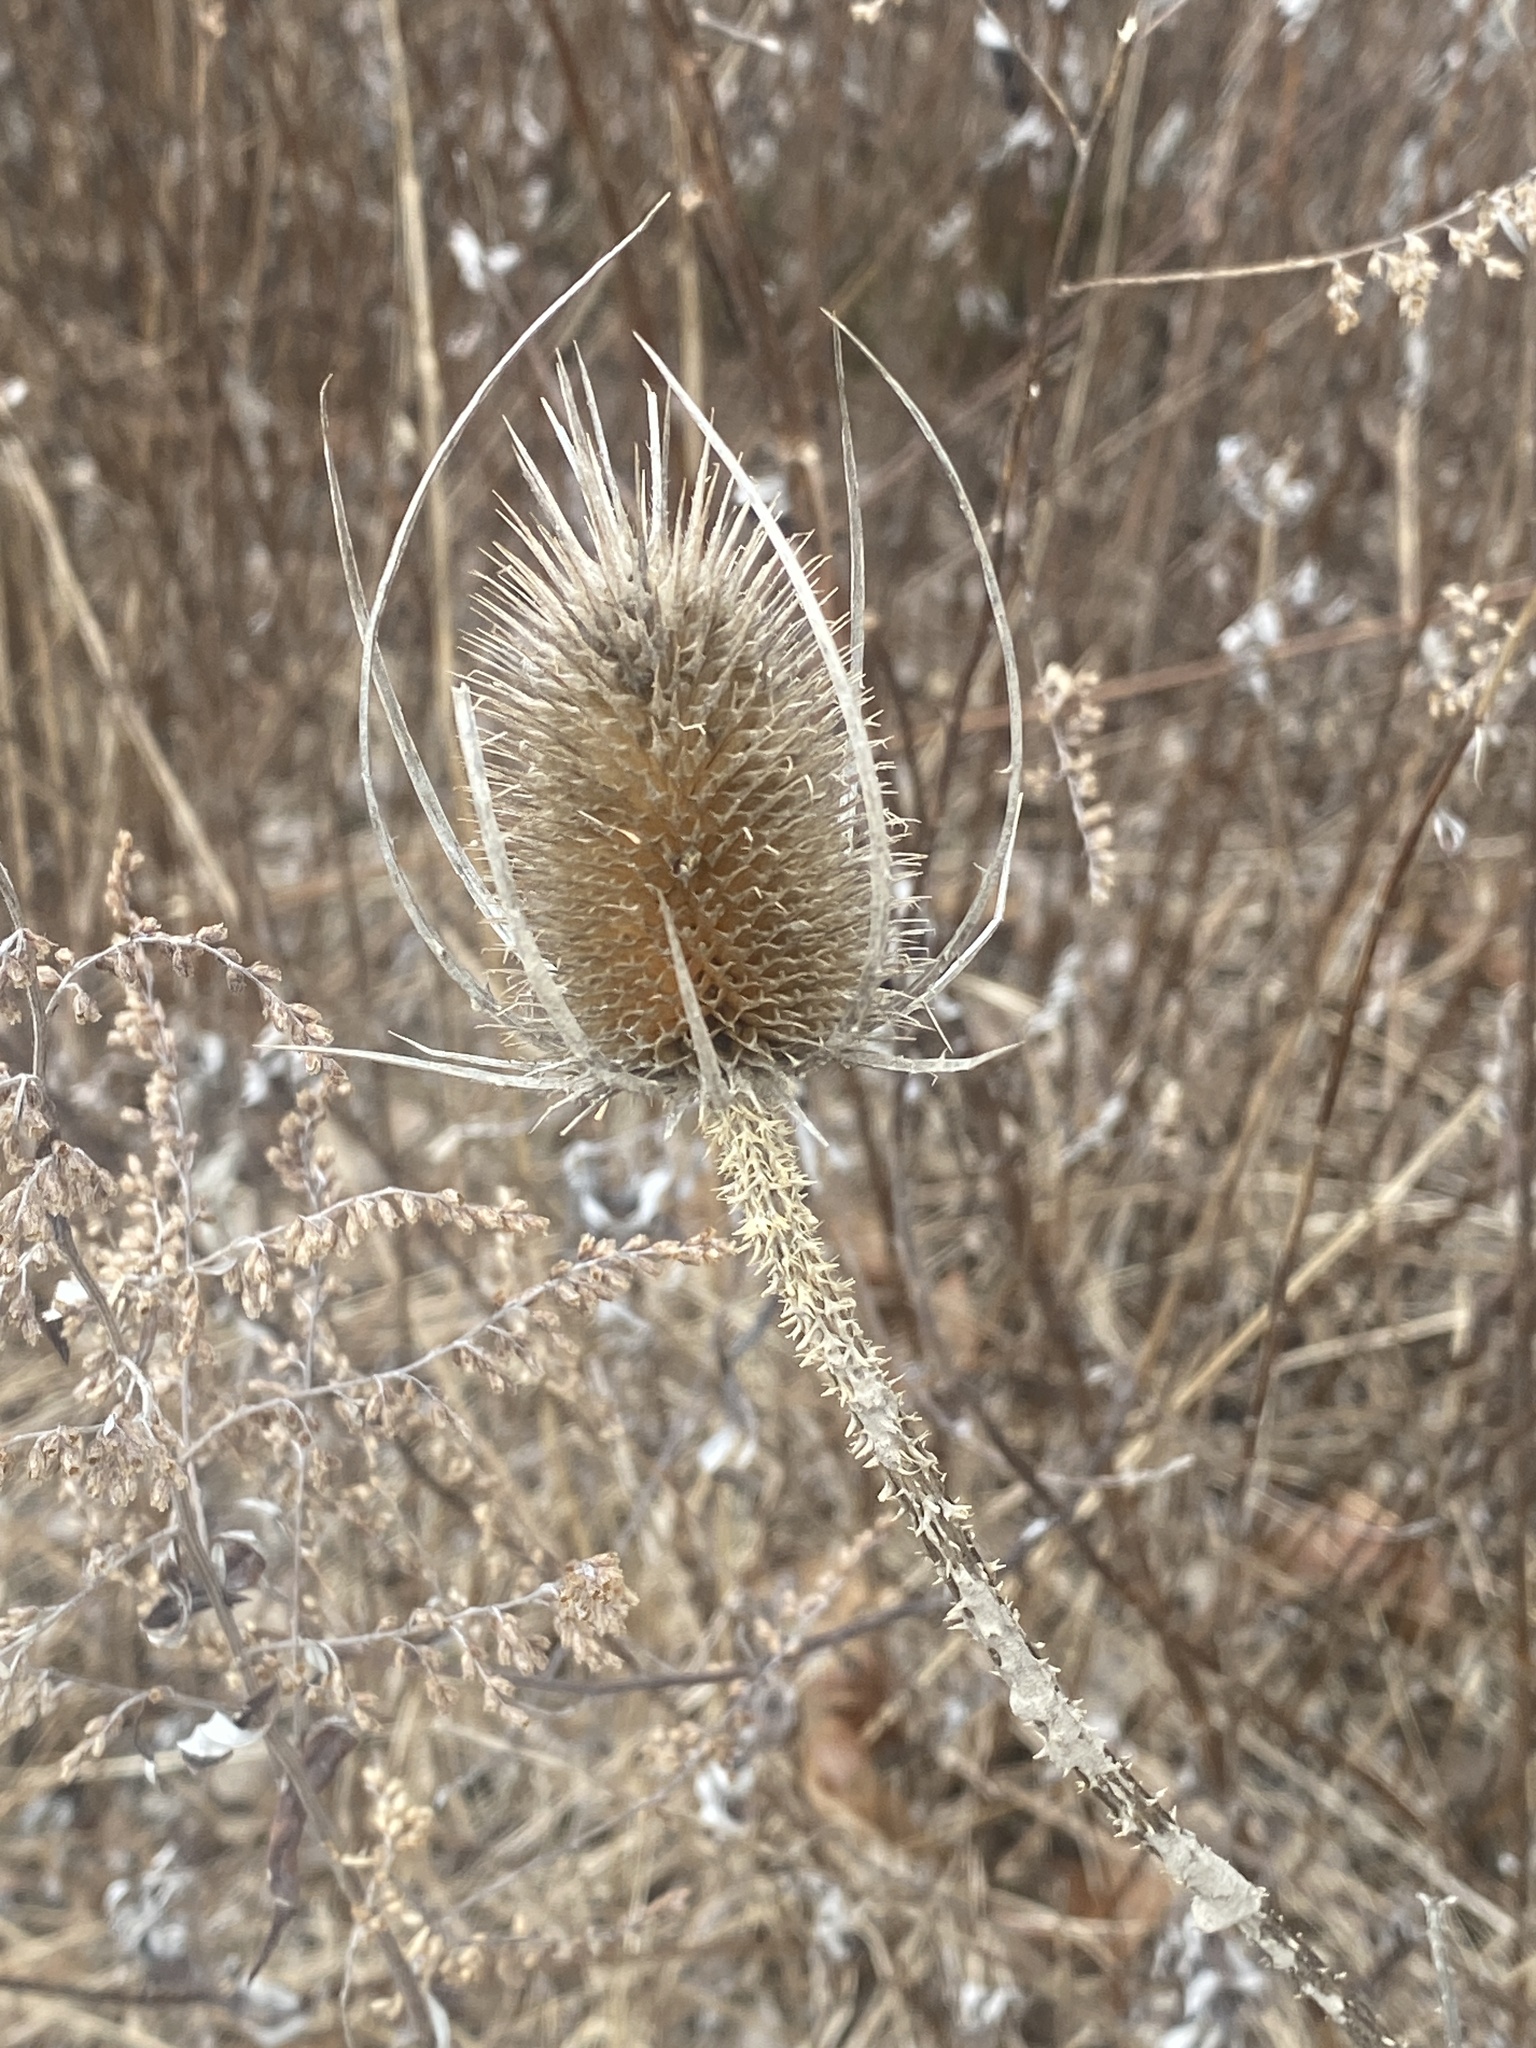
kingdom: Plantae
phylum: Tracheophyta
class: Magnoliopsida
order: Dipsacales
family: Caprifoliaceae
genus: Dipsacus
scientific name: Dipsacus fullonum
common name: Teasel
